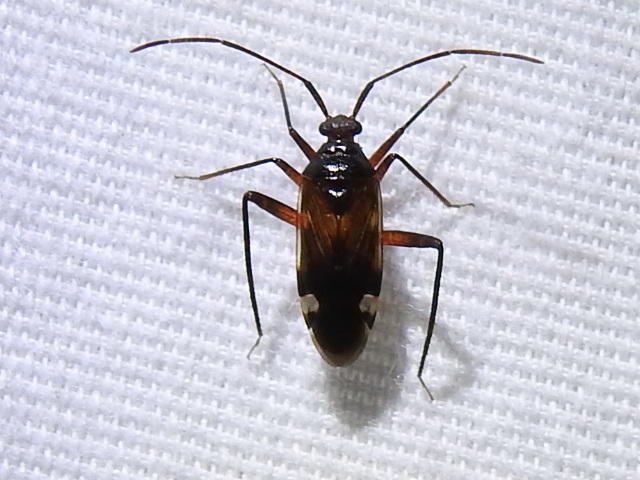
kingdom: Animalia
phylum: Arthropoda
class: Insecta
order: Hemiptera
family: Miridae
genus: Eustictus
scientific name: Eustictus albomaculatus
